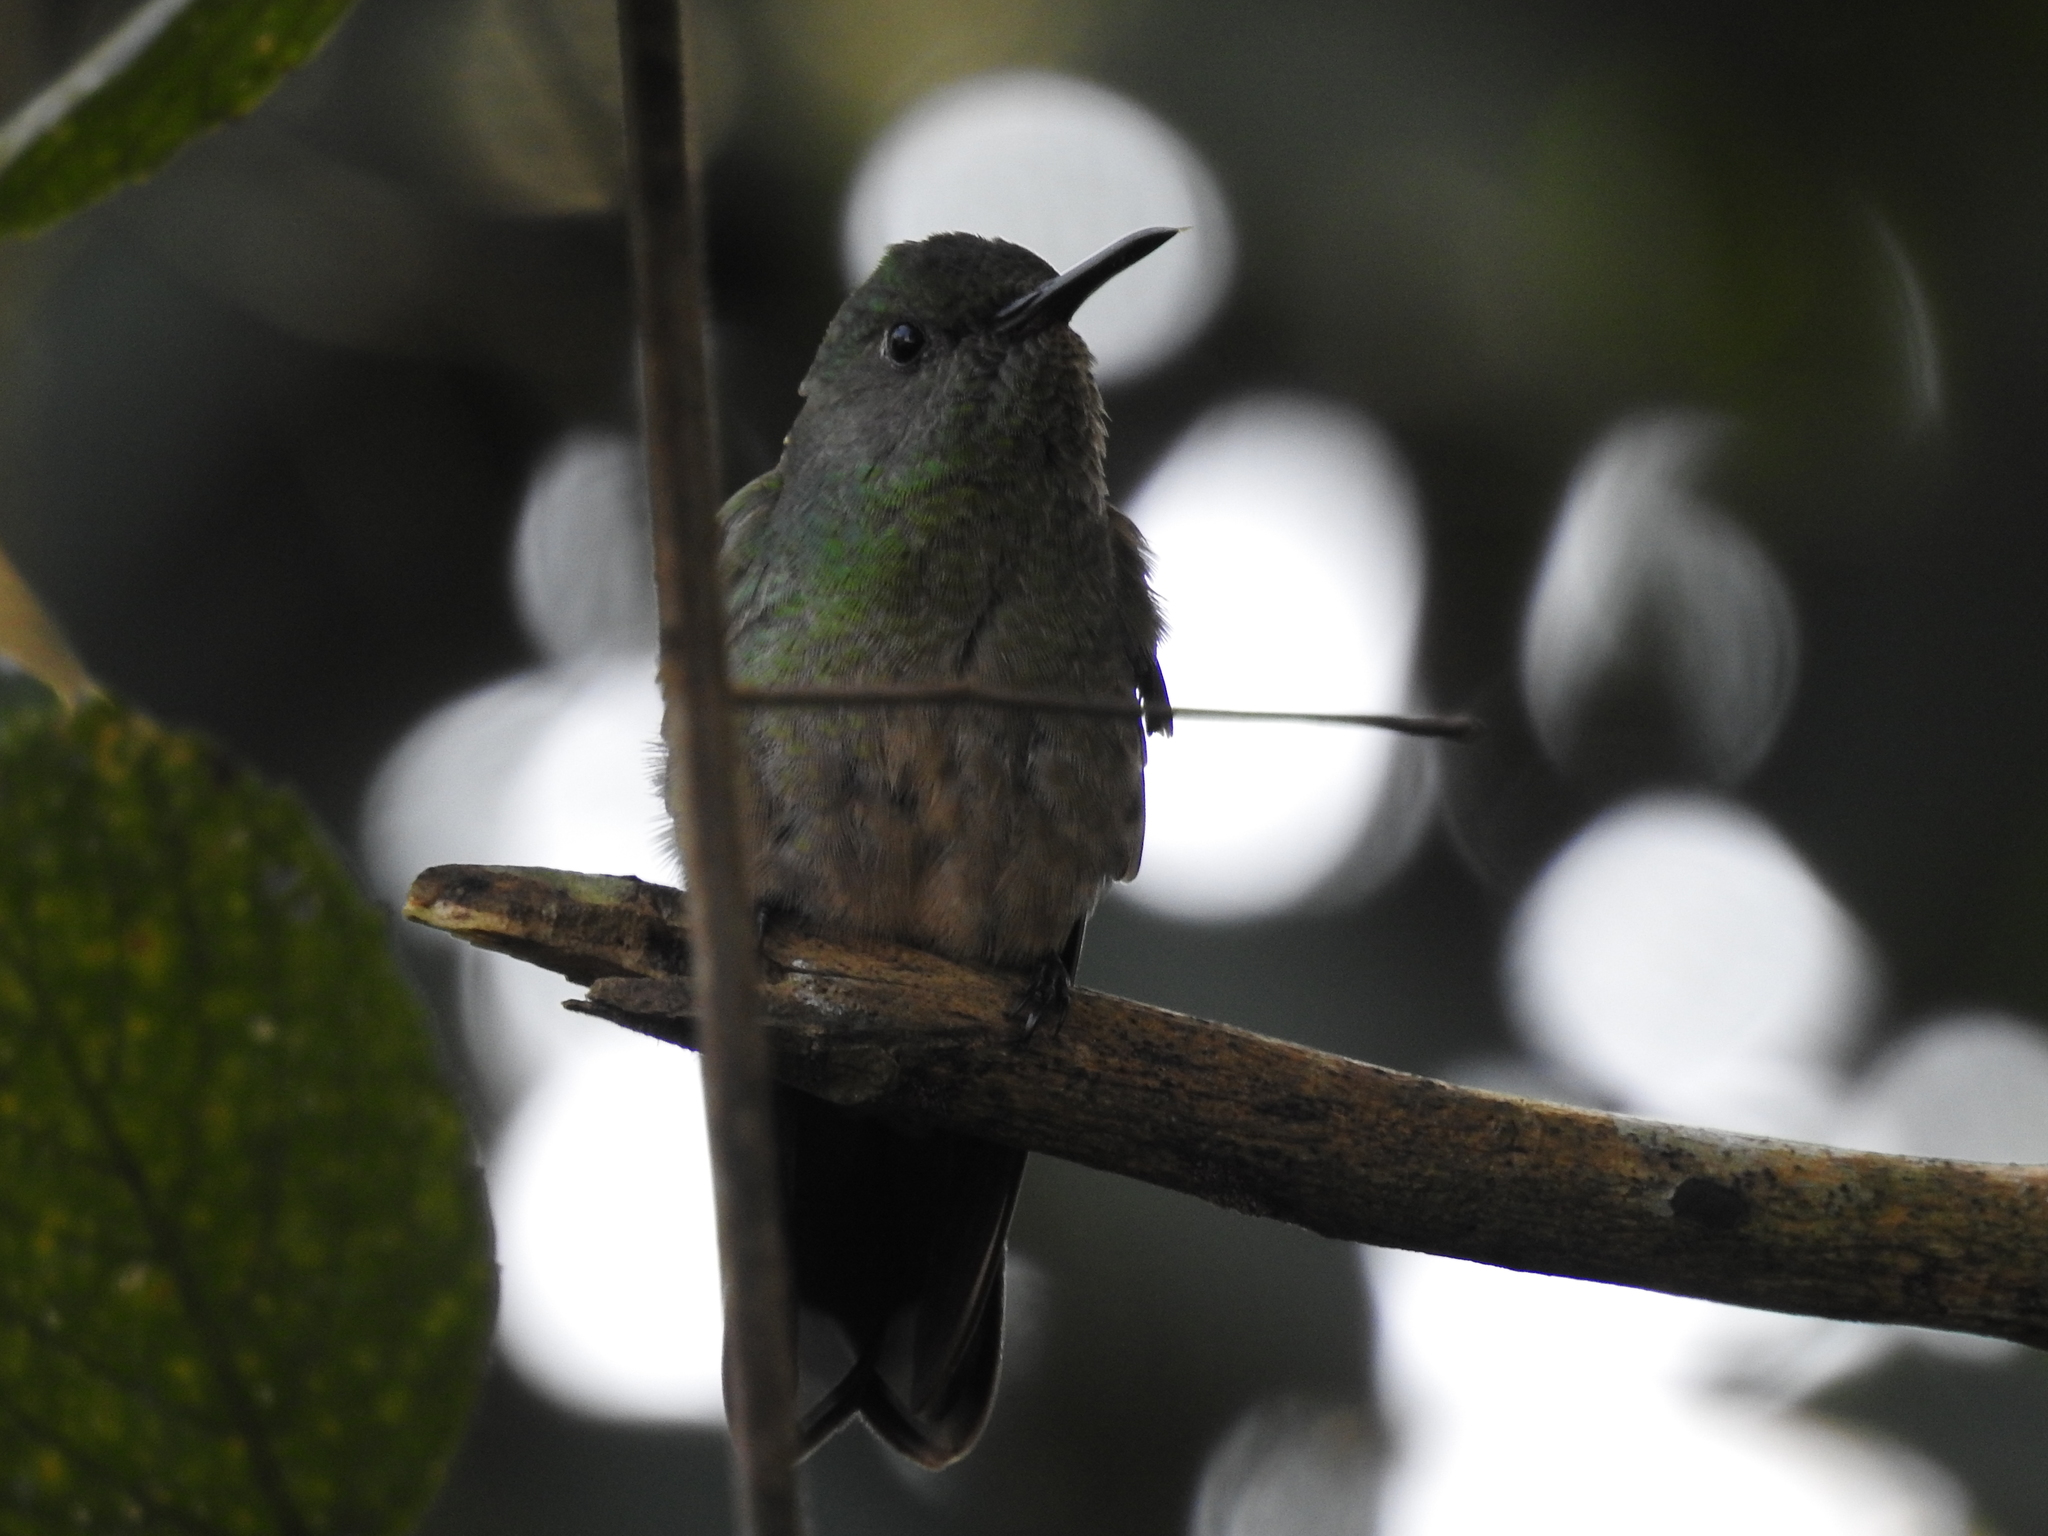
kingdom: Animalia
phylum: Chordata
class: Aves
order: Apodiformes
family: Trochilidae
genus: Phaeochroa
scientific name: Phaeochroa cuvierii
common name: Scaly-breasted hummingbird
